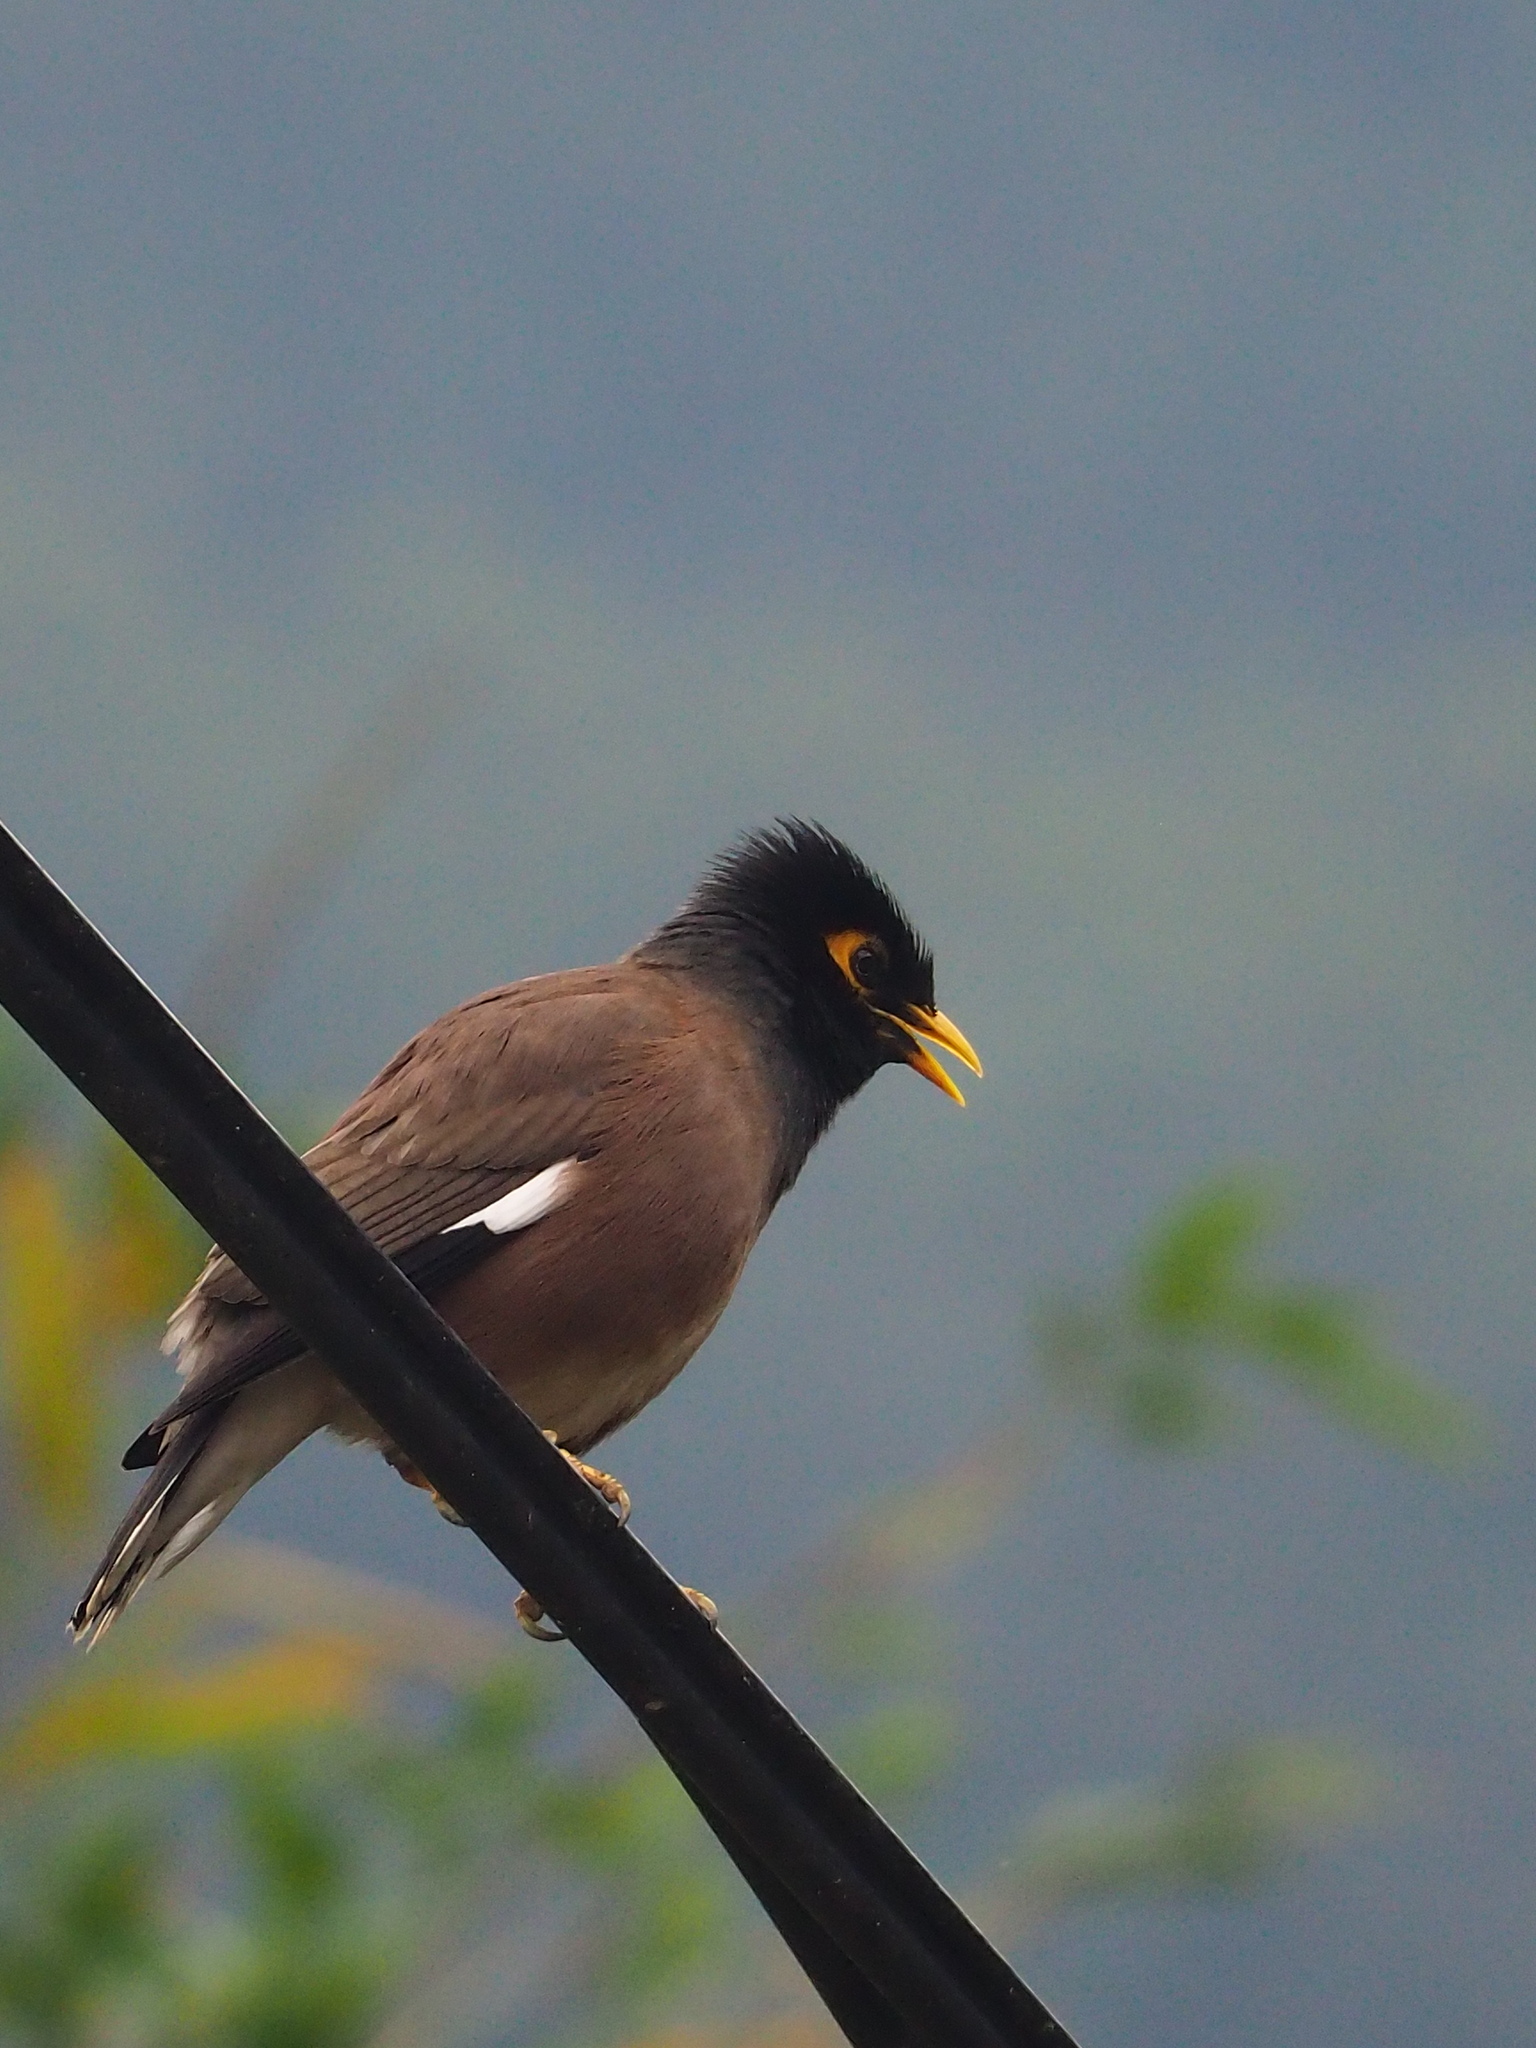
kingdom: Animalia
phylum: Chordata
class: Aves
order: Passeriformes
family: Sturnidae
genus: Acridotheres
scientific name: Acridotheres tristis
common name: Common myna
